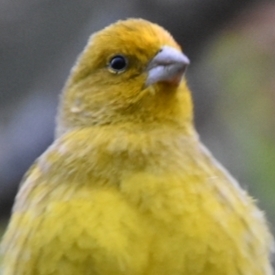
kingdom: Animalia
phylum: Chordata
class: Aves
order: Passeriformes
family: Thraupidae
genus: Sicalis
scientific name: Sicalis flaveola
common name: Saffron finch
